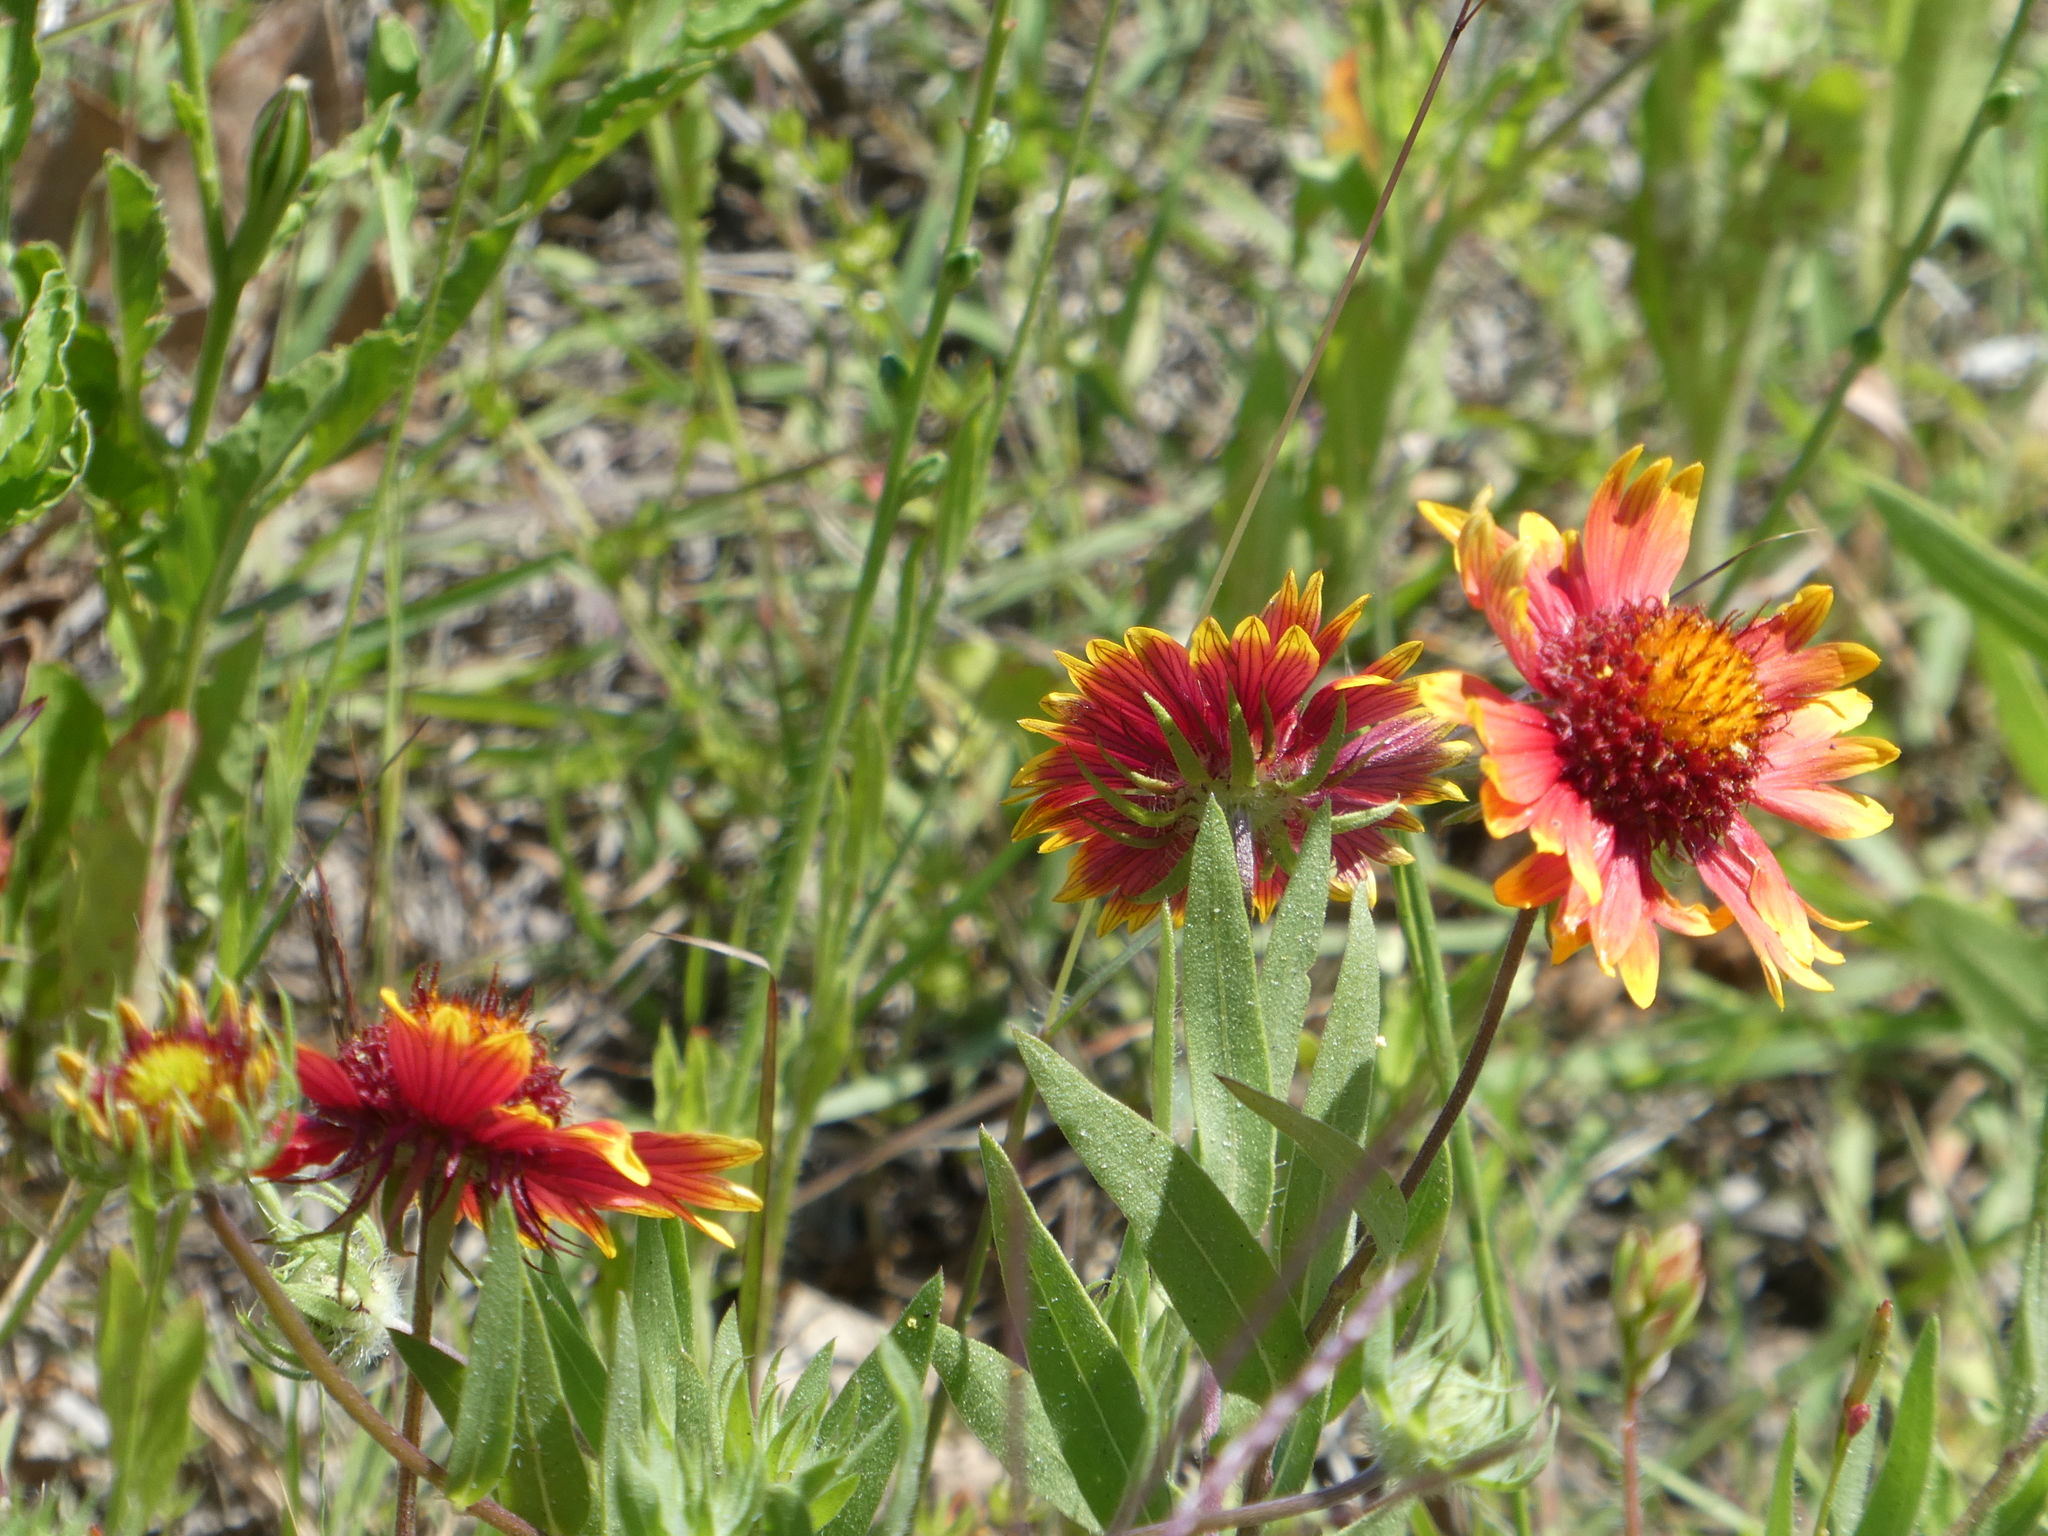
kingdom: Plantae
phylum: Tracheophyta
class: Magnoliopsida
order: Asterales
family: Asteraceae
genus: Gaillardia
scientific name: Gaillardia pulchella
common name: Firewheel
